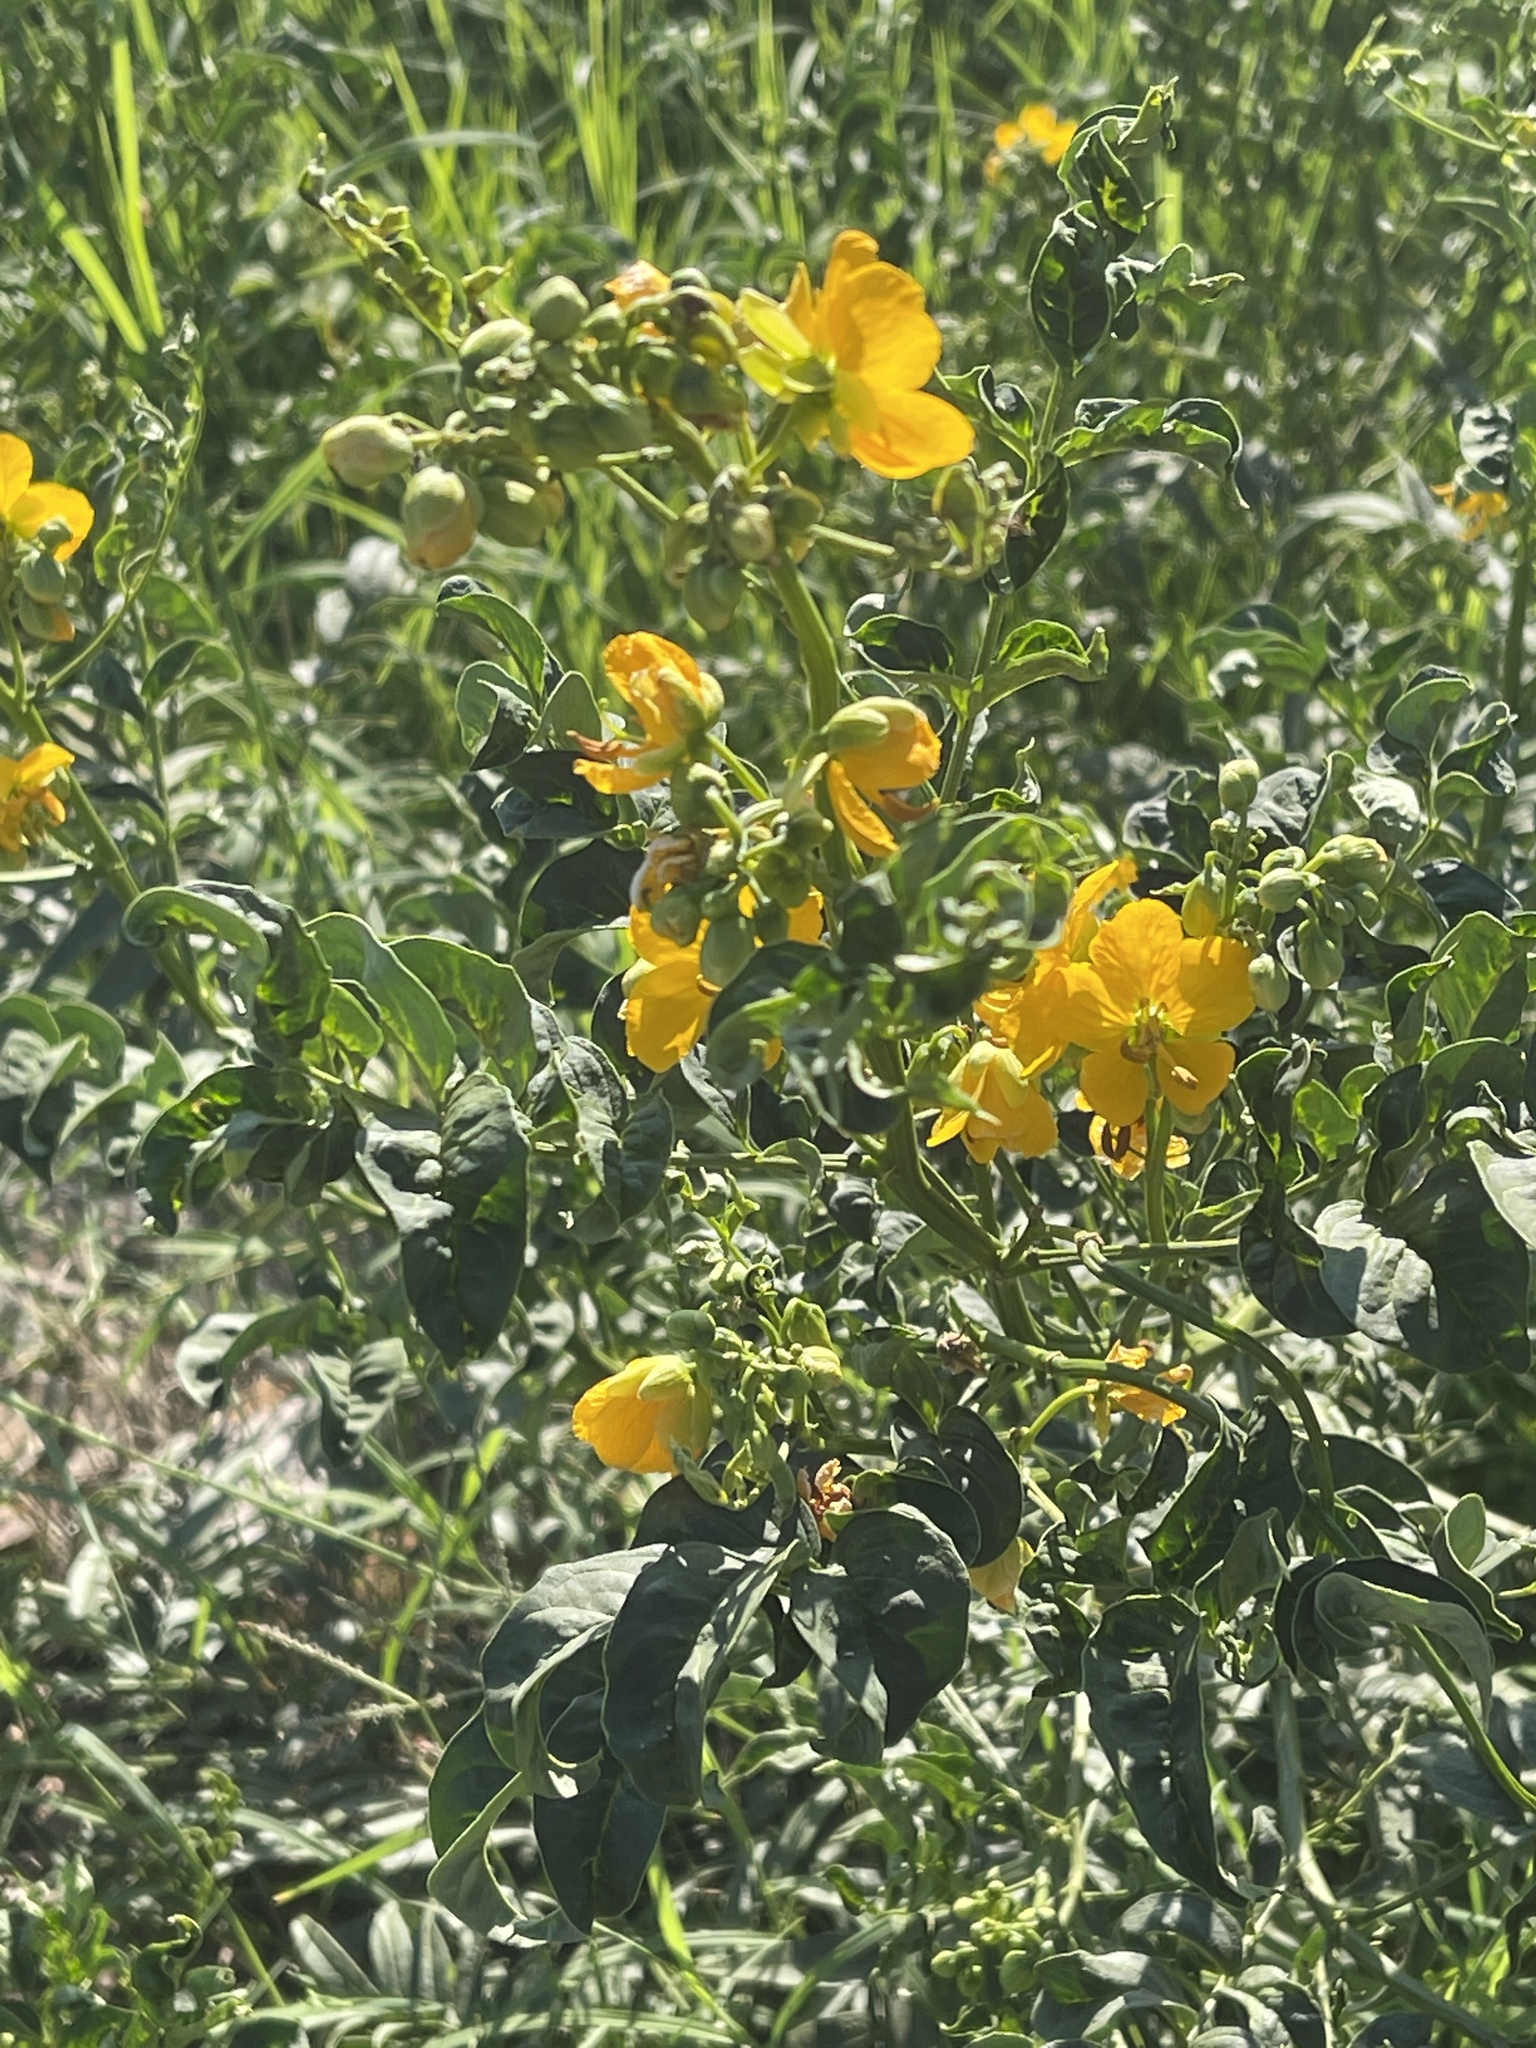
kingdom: Plantae
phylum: Tracheophyta
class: Magnoliopsida
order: Fabales
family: Fabaceae
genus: Senna
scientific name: Senna hirsuta
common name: Woolly senna
